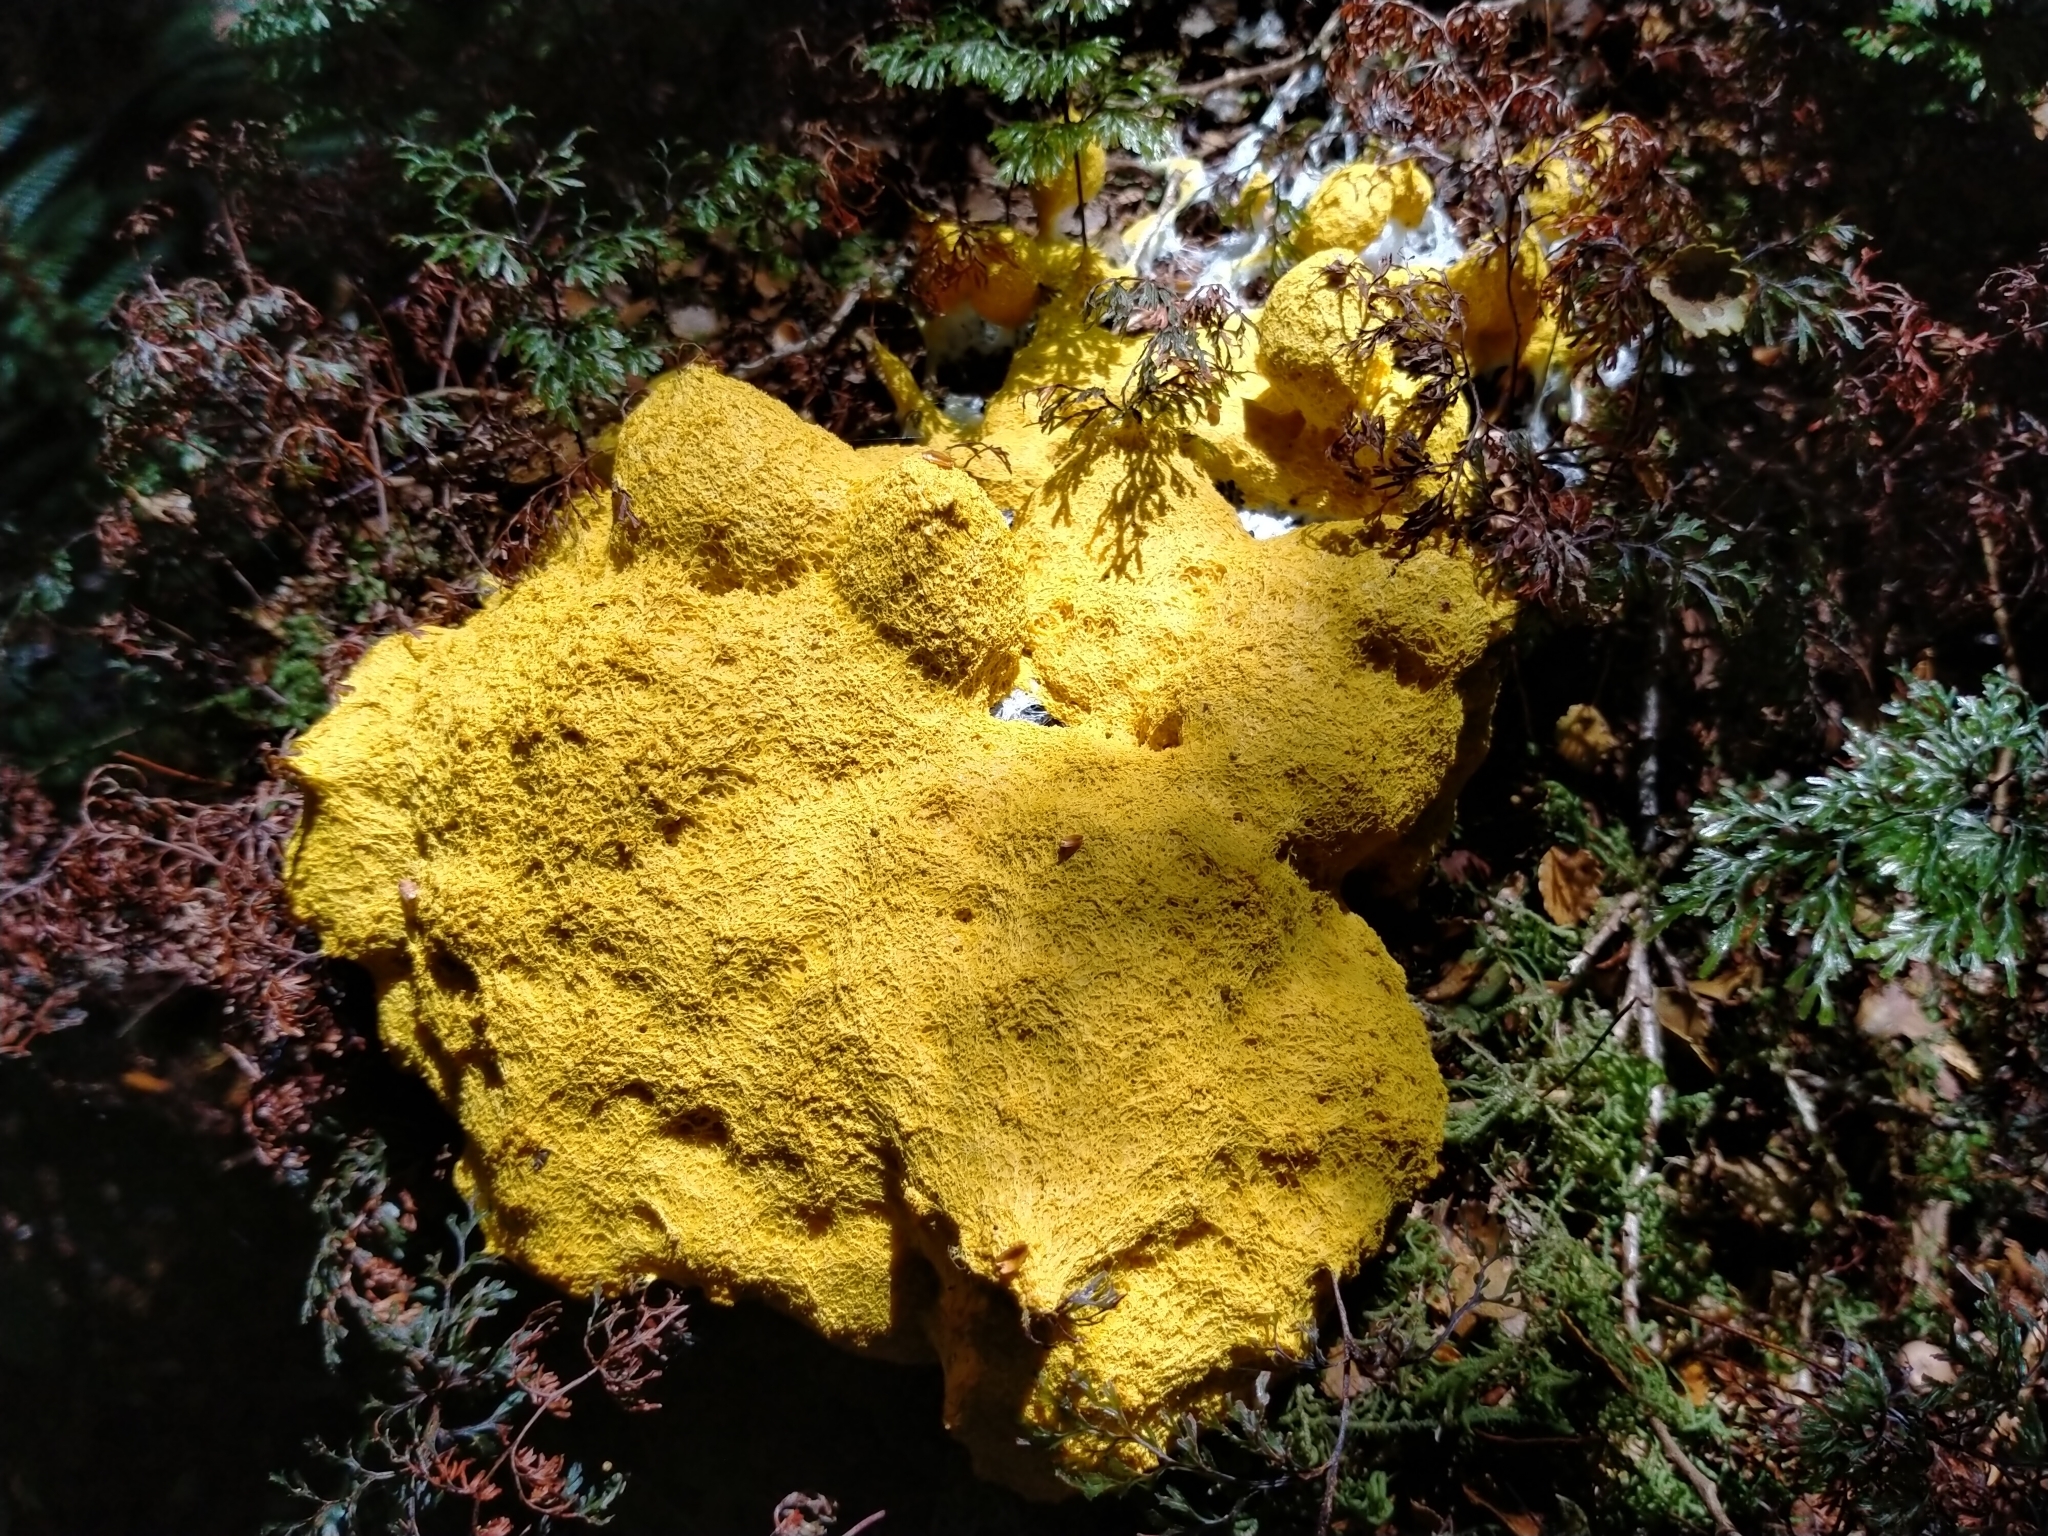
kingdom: Protozoa
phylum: Mycetozoa
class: Myxomycetes
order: Physarales
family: Physaraceae
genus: Fuligo
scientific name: Fuligo septica
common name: Dog vomit slime mold
